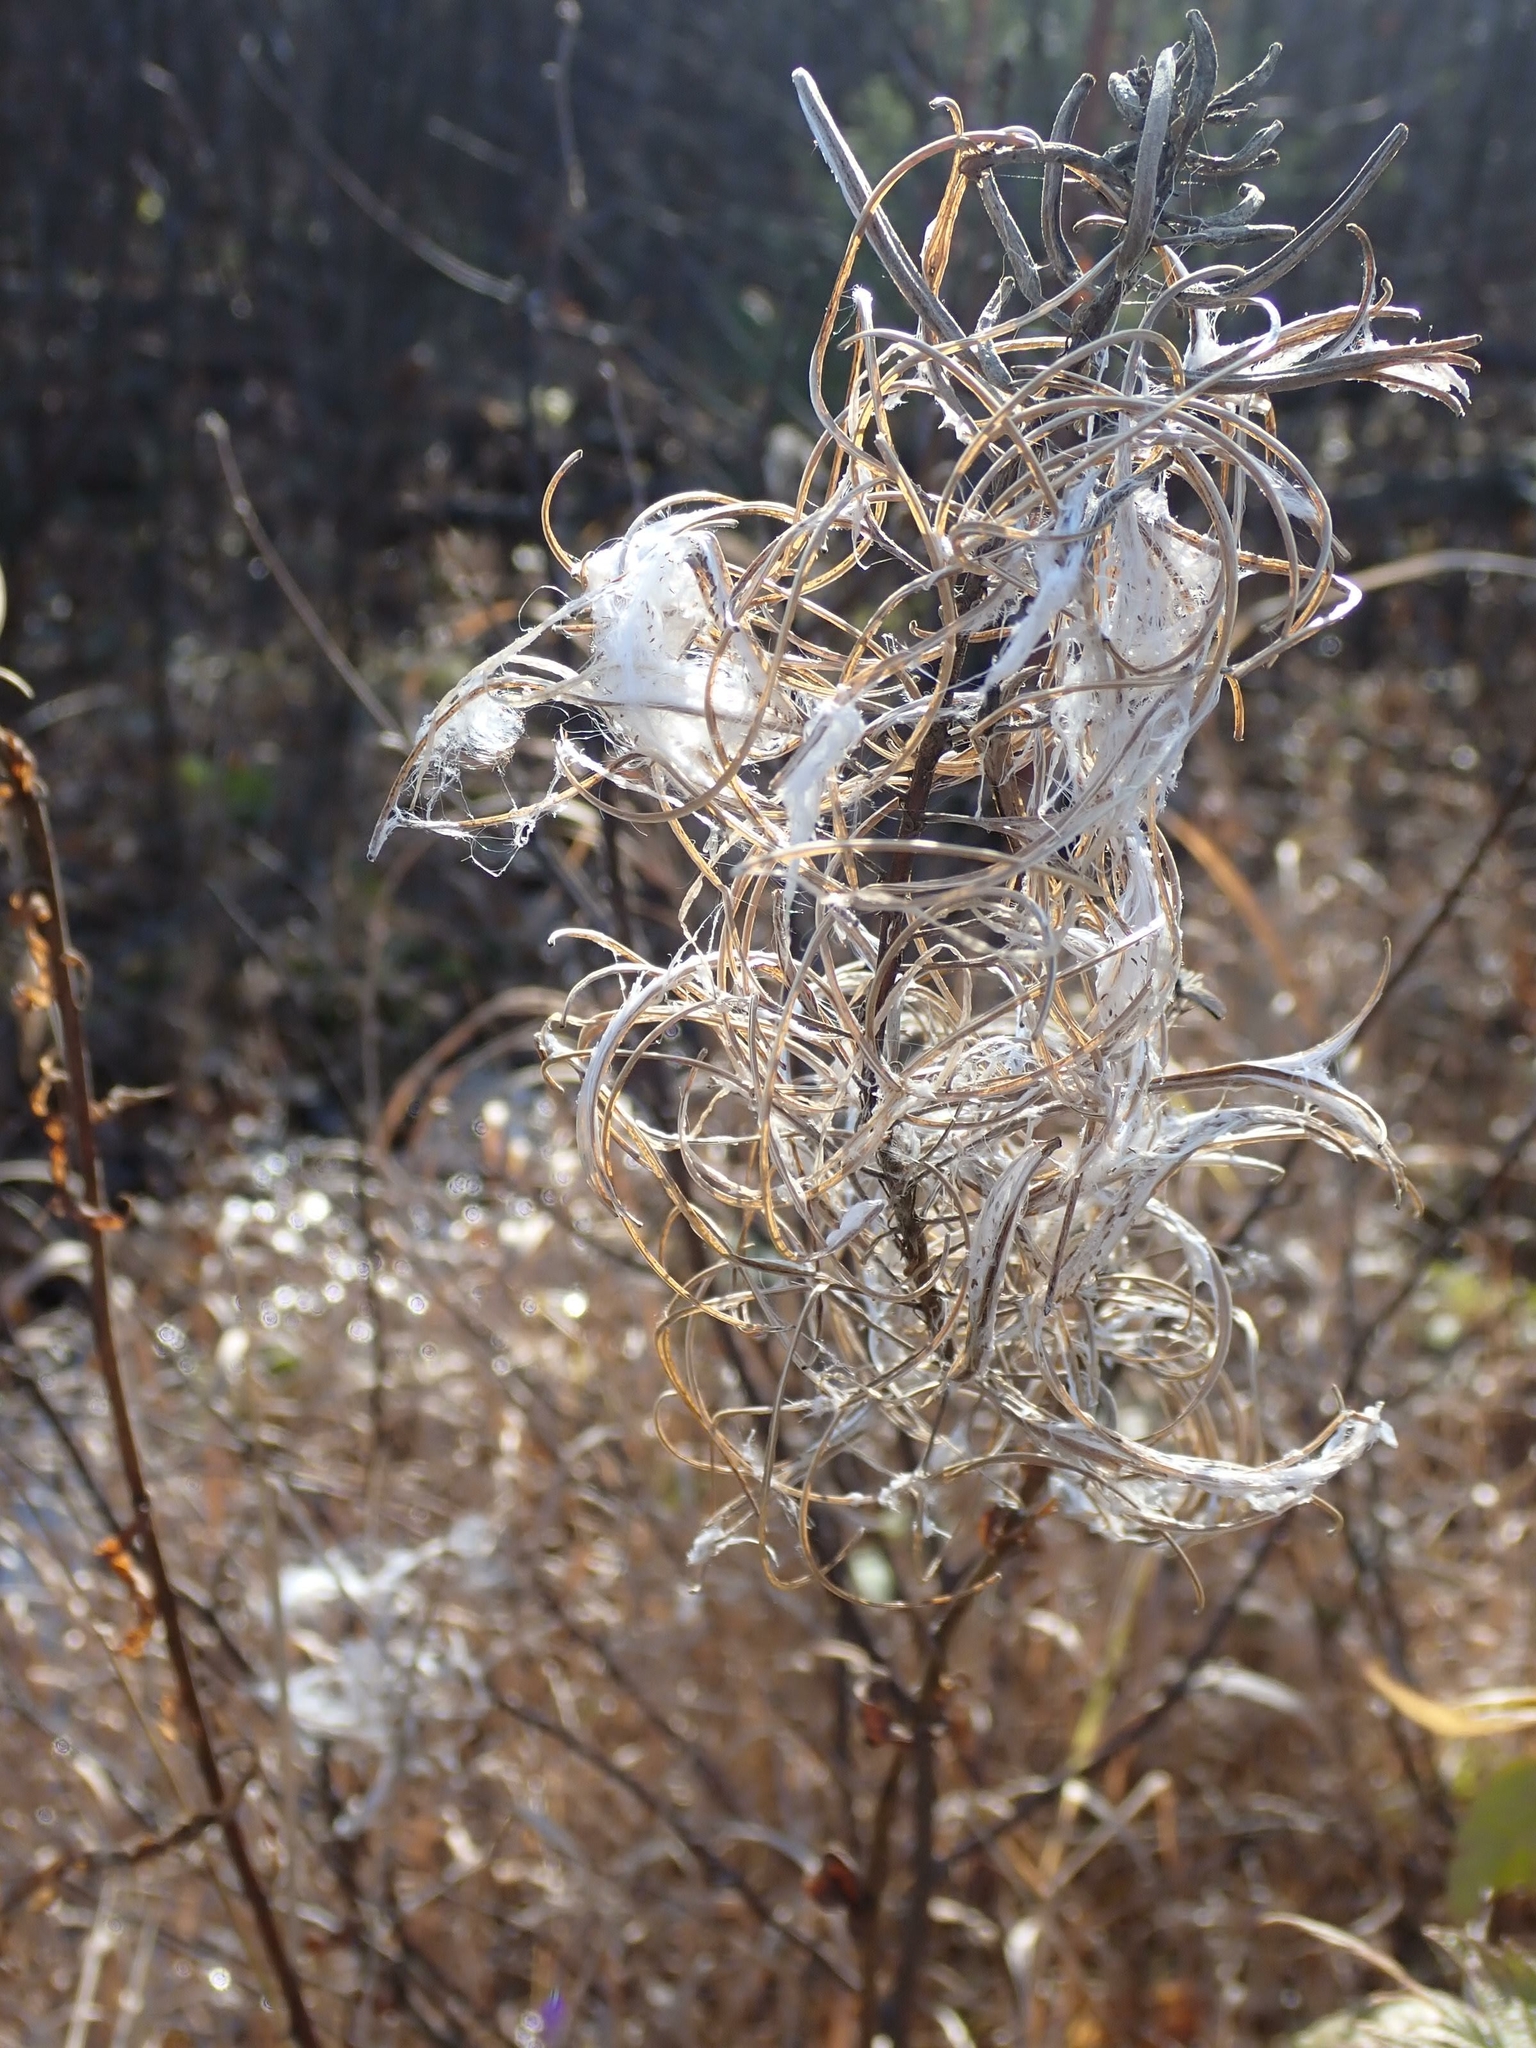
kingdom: Plantae
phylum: Tracheophyta
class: Magnoliopsida
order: Myrtales
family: Onagraceae
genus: Chamaenerion
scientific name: Chamaenerion angustifolium
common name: Fireweed
